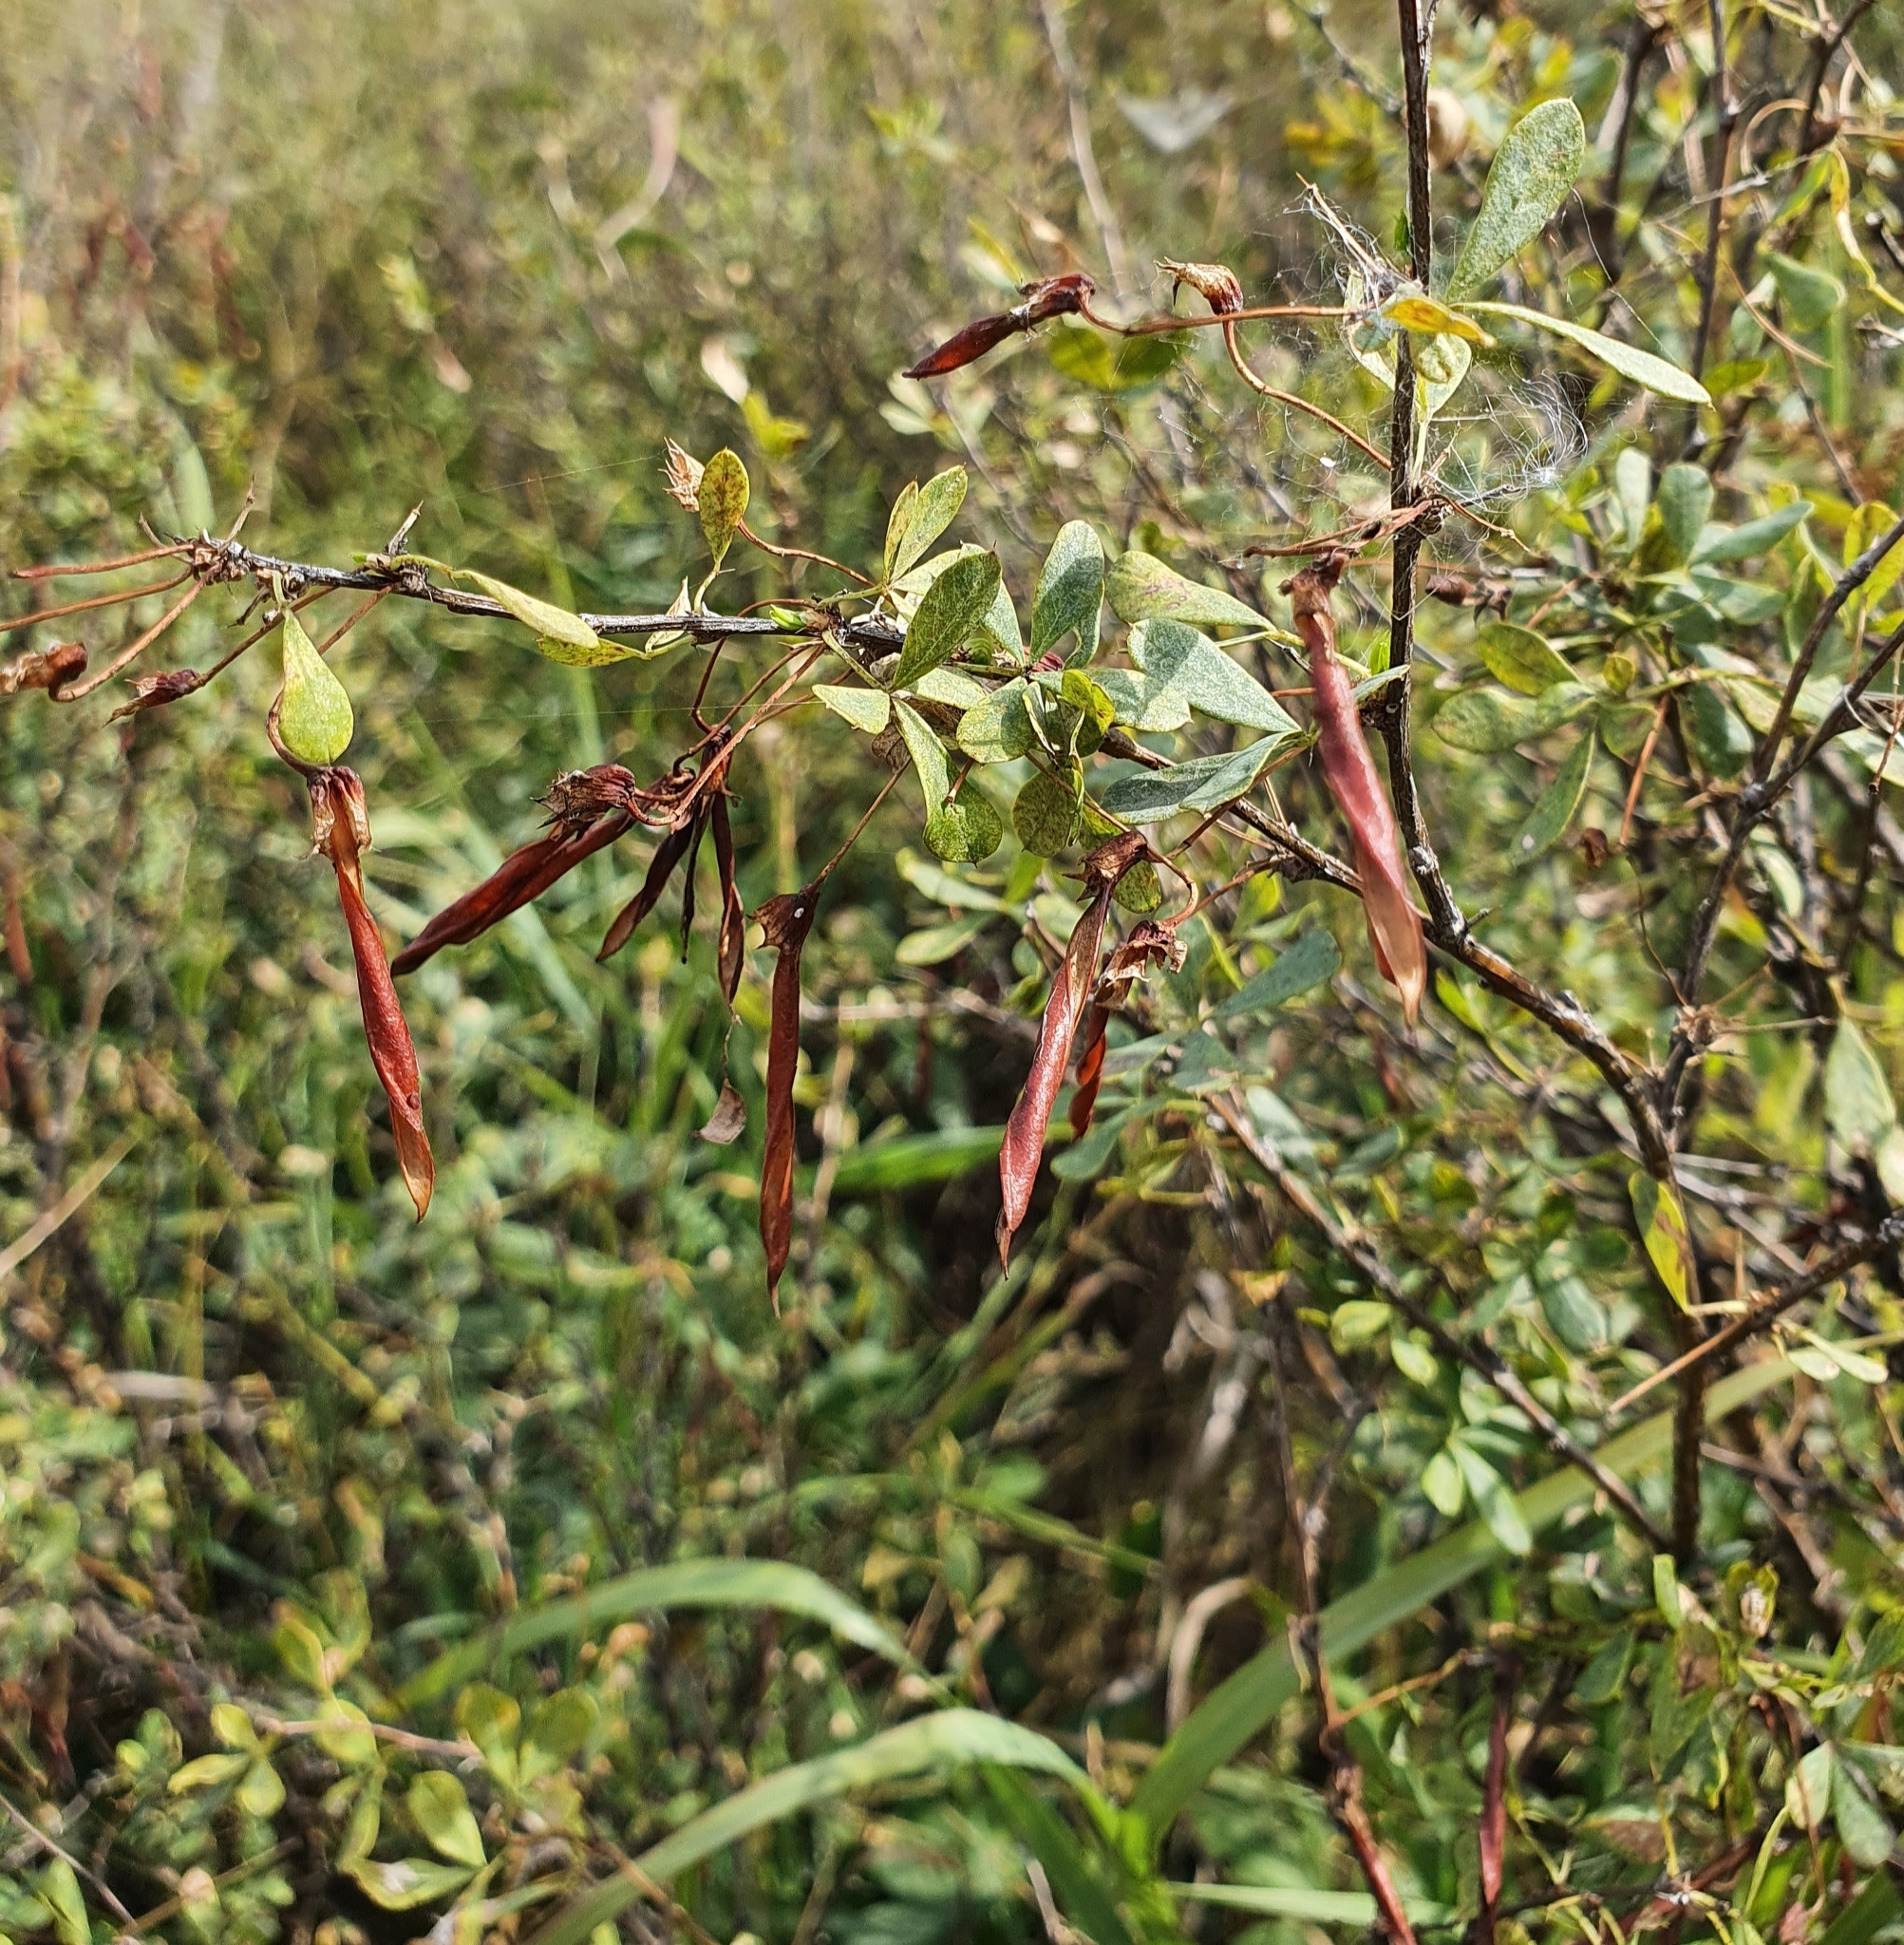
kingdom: Plantae
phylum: Tracheophyta
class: Magnoliopsida
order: Fabales
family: Fabaceae
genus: Caragana
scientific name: Caragana frutex
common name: Russian peashrub
